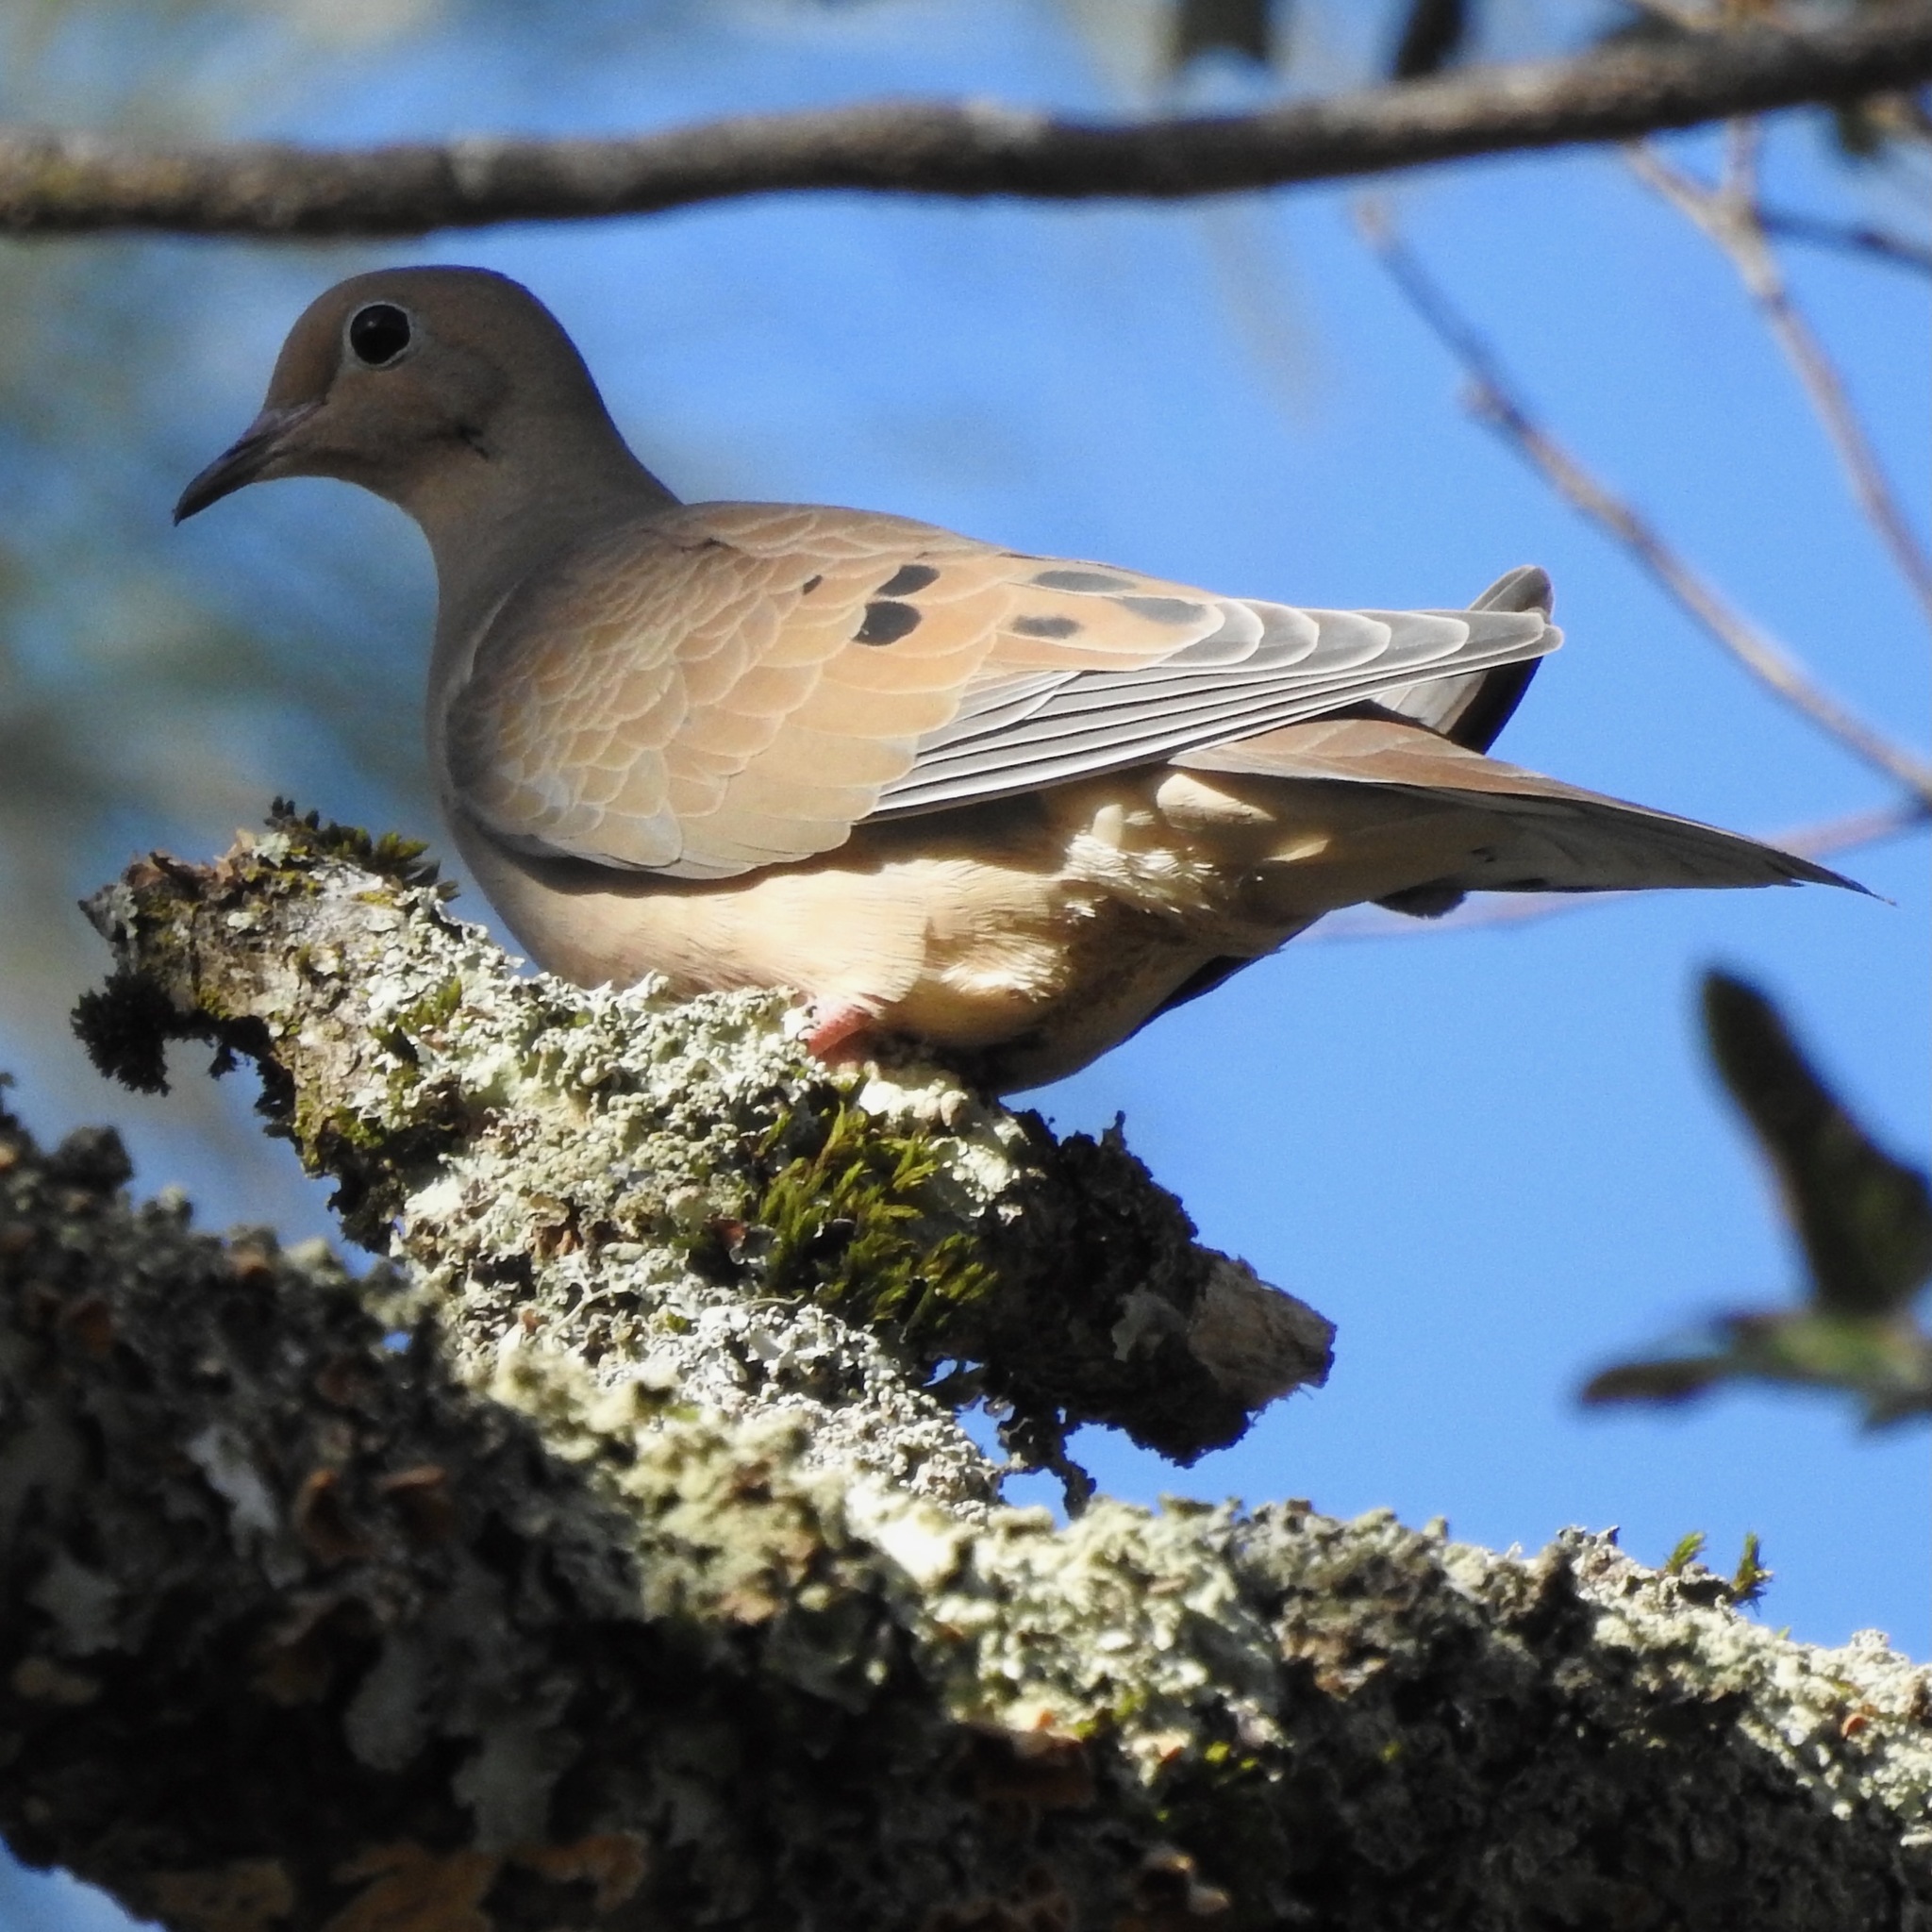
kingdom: Animalia
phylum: Chordata
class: Aves
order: Columbiformes
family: Columbidae
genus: Zenaida
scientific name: Zenaida macroura
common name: Mourning dove
